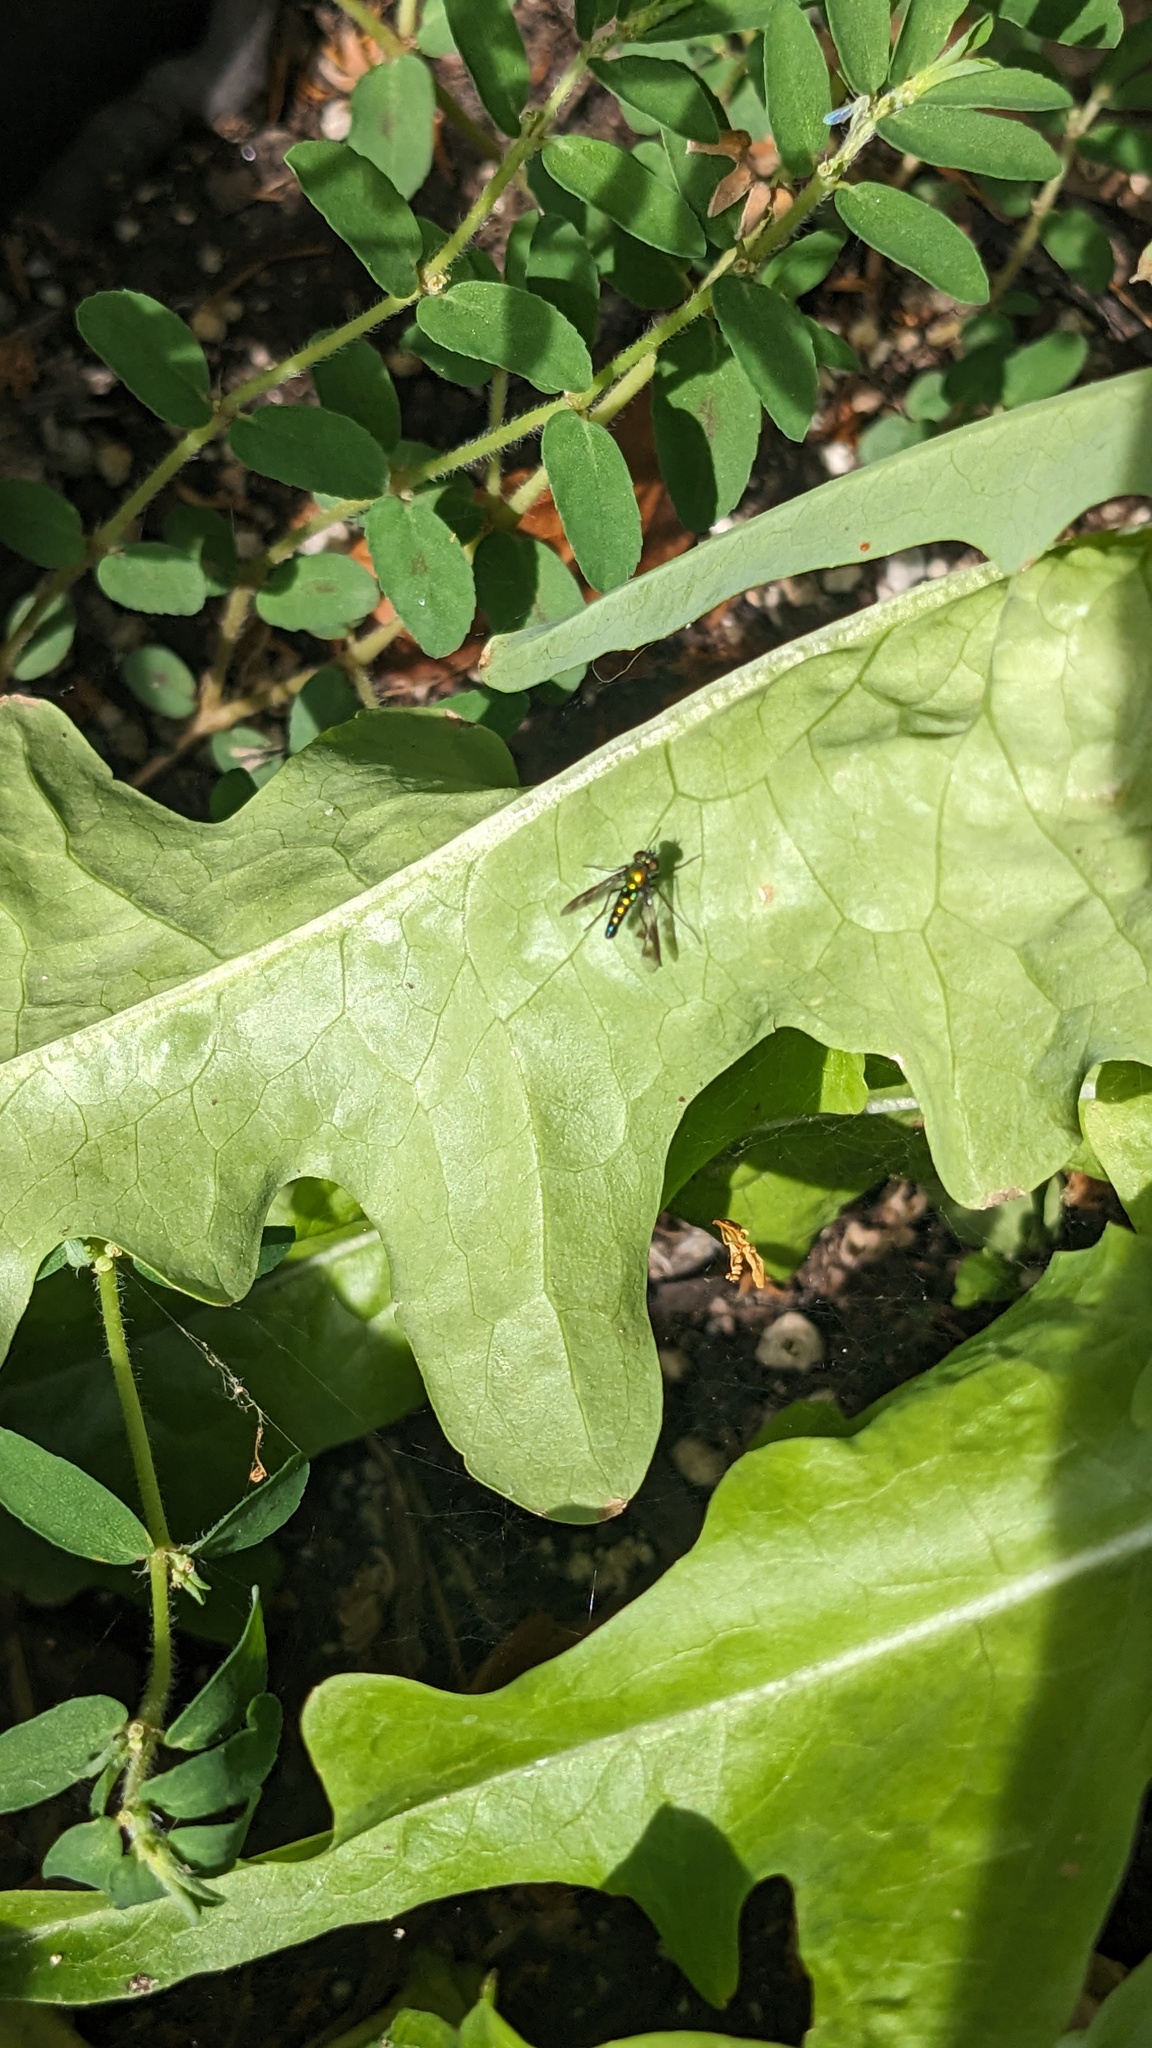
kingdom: Animalia
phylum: Arthropoda
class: Insecta
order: Diptera
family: Dolichopodidae
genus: Condylostylus
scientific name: Condylostylus patibulatus
